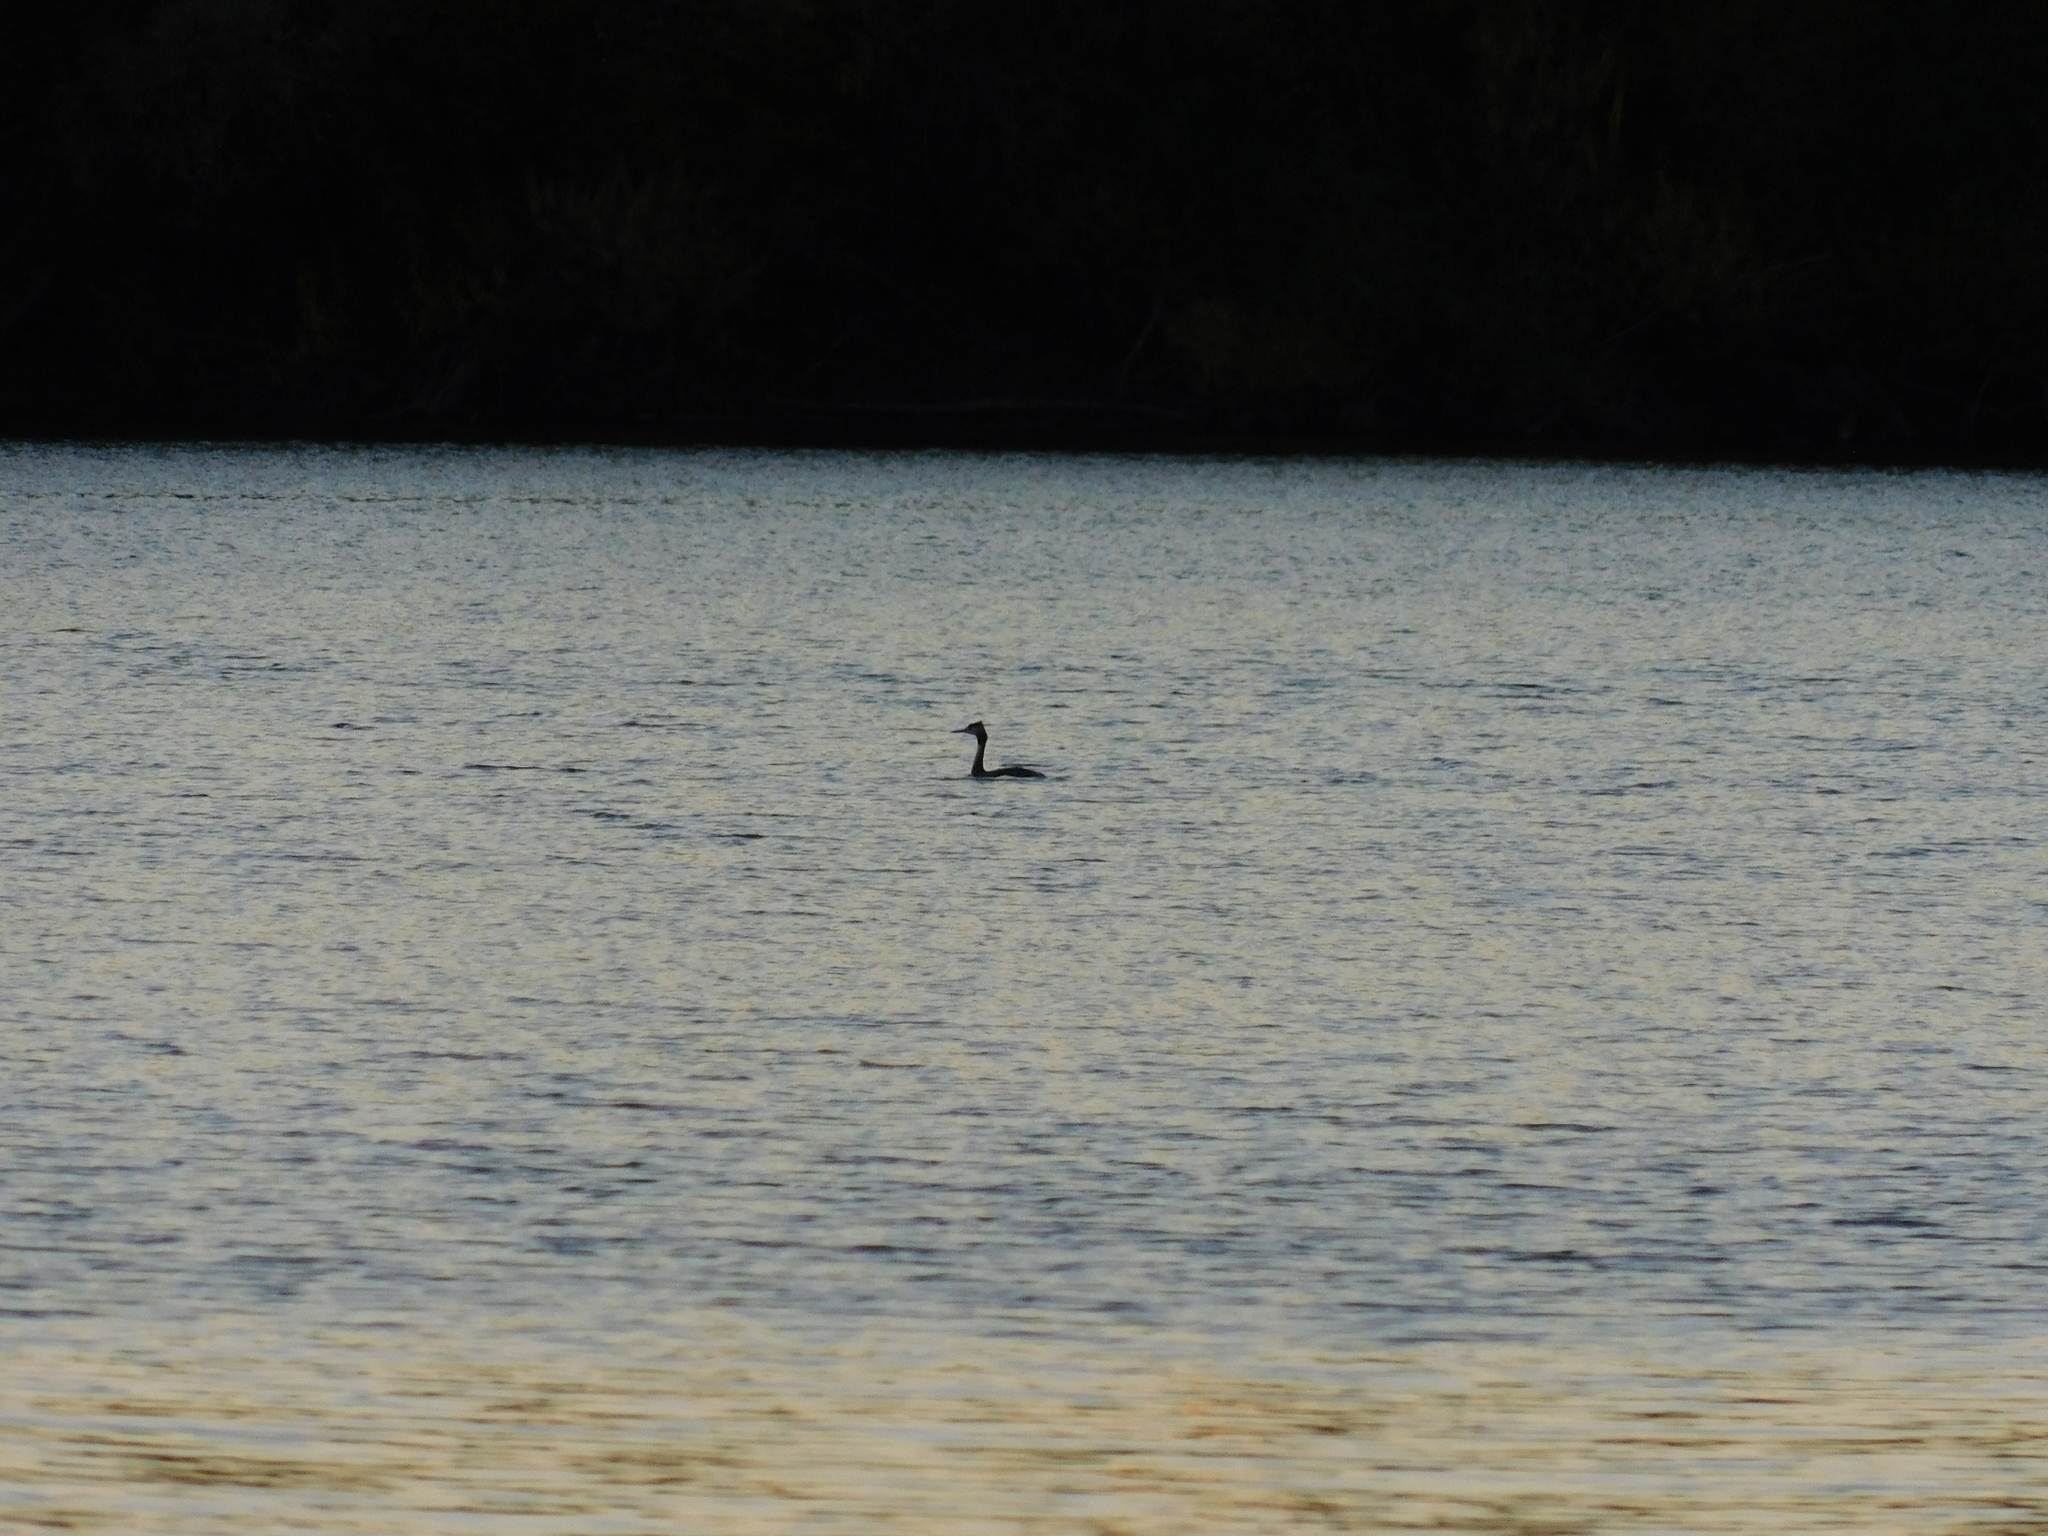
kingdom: Animalia
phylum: Chordata
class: Aves
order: Podicipediformes
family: Podicipedidae
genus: Podiceps
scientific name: Podiceps cristatus
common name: Great crested grebe
